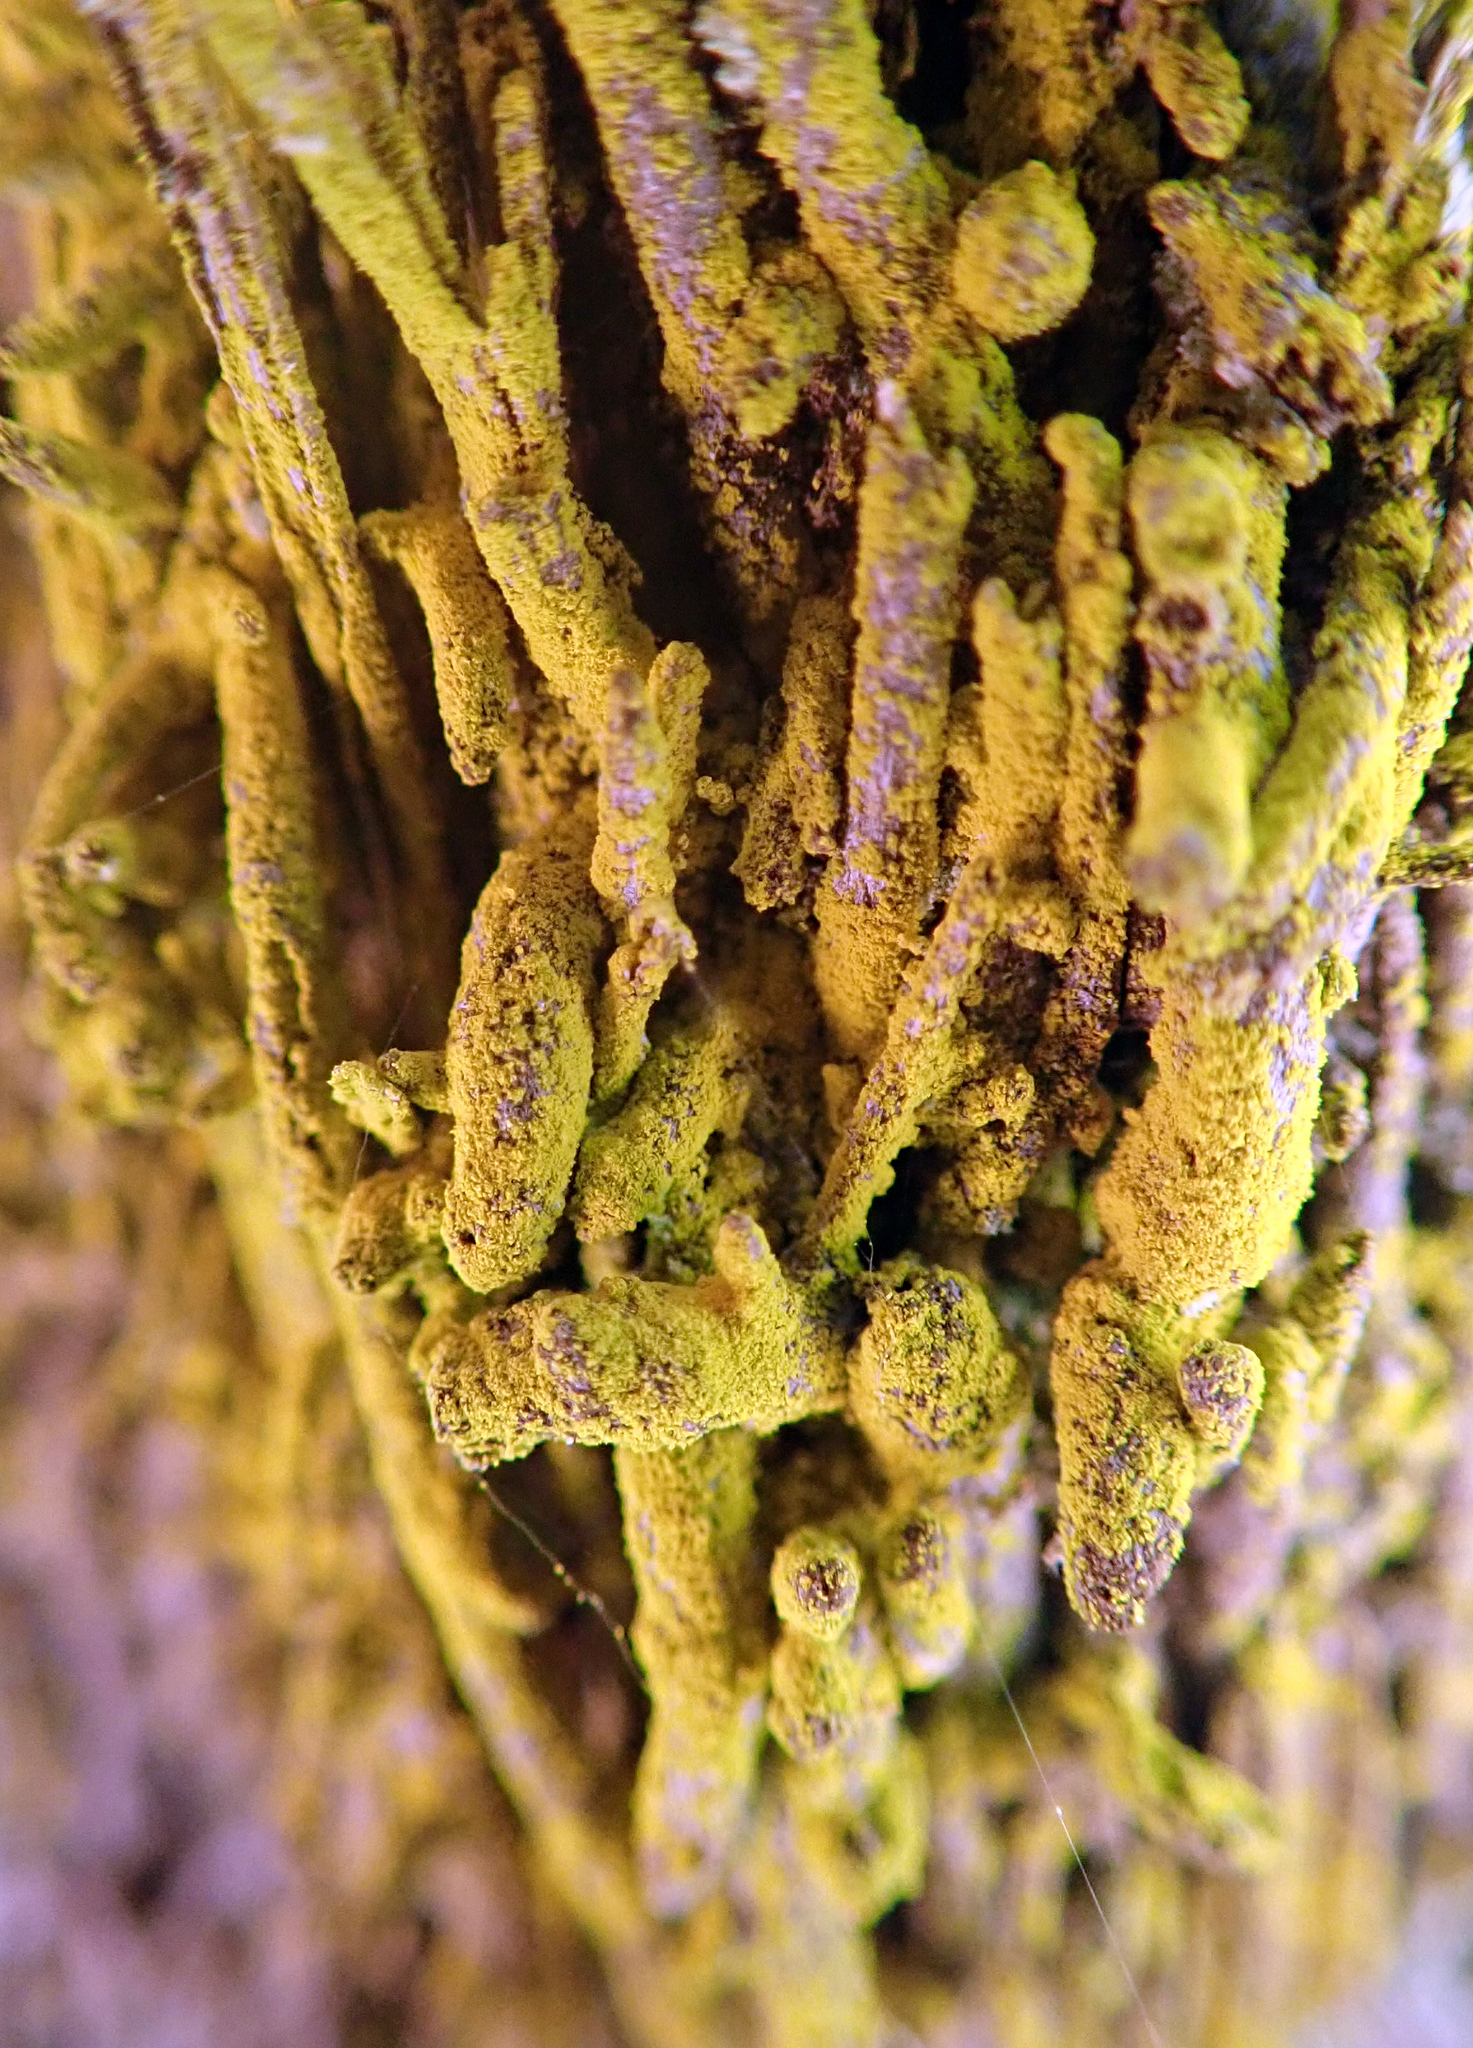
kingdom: Fungi
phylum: Ascomycota
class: Arthoniomycetes
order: Arthoniales
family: Chrysotrichaceae
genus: Chrysothrix
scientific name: Chrysothrix xanthina
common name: Common gold-dust
